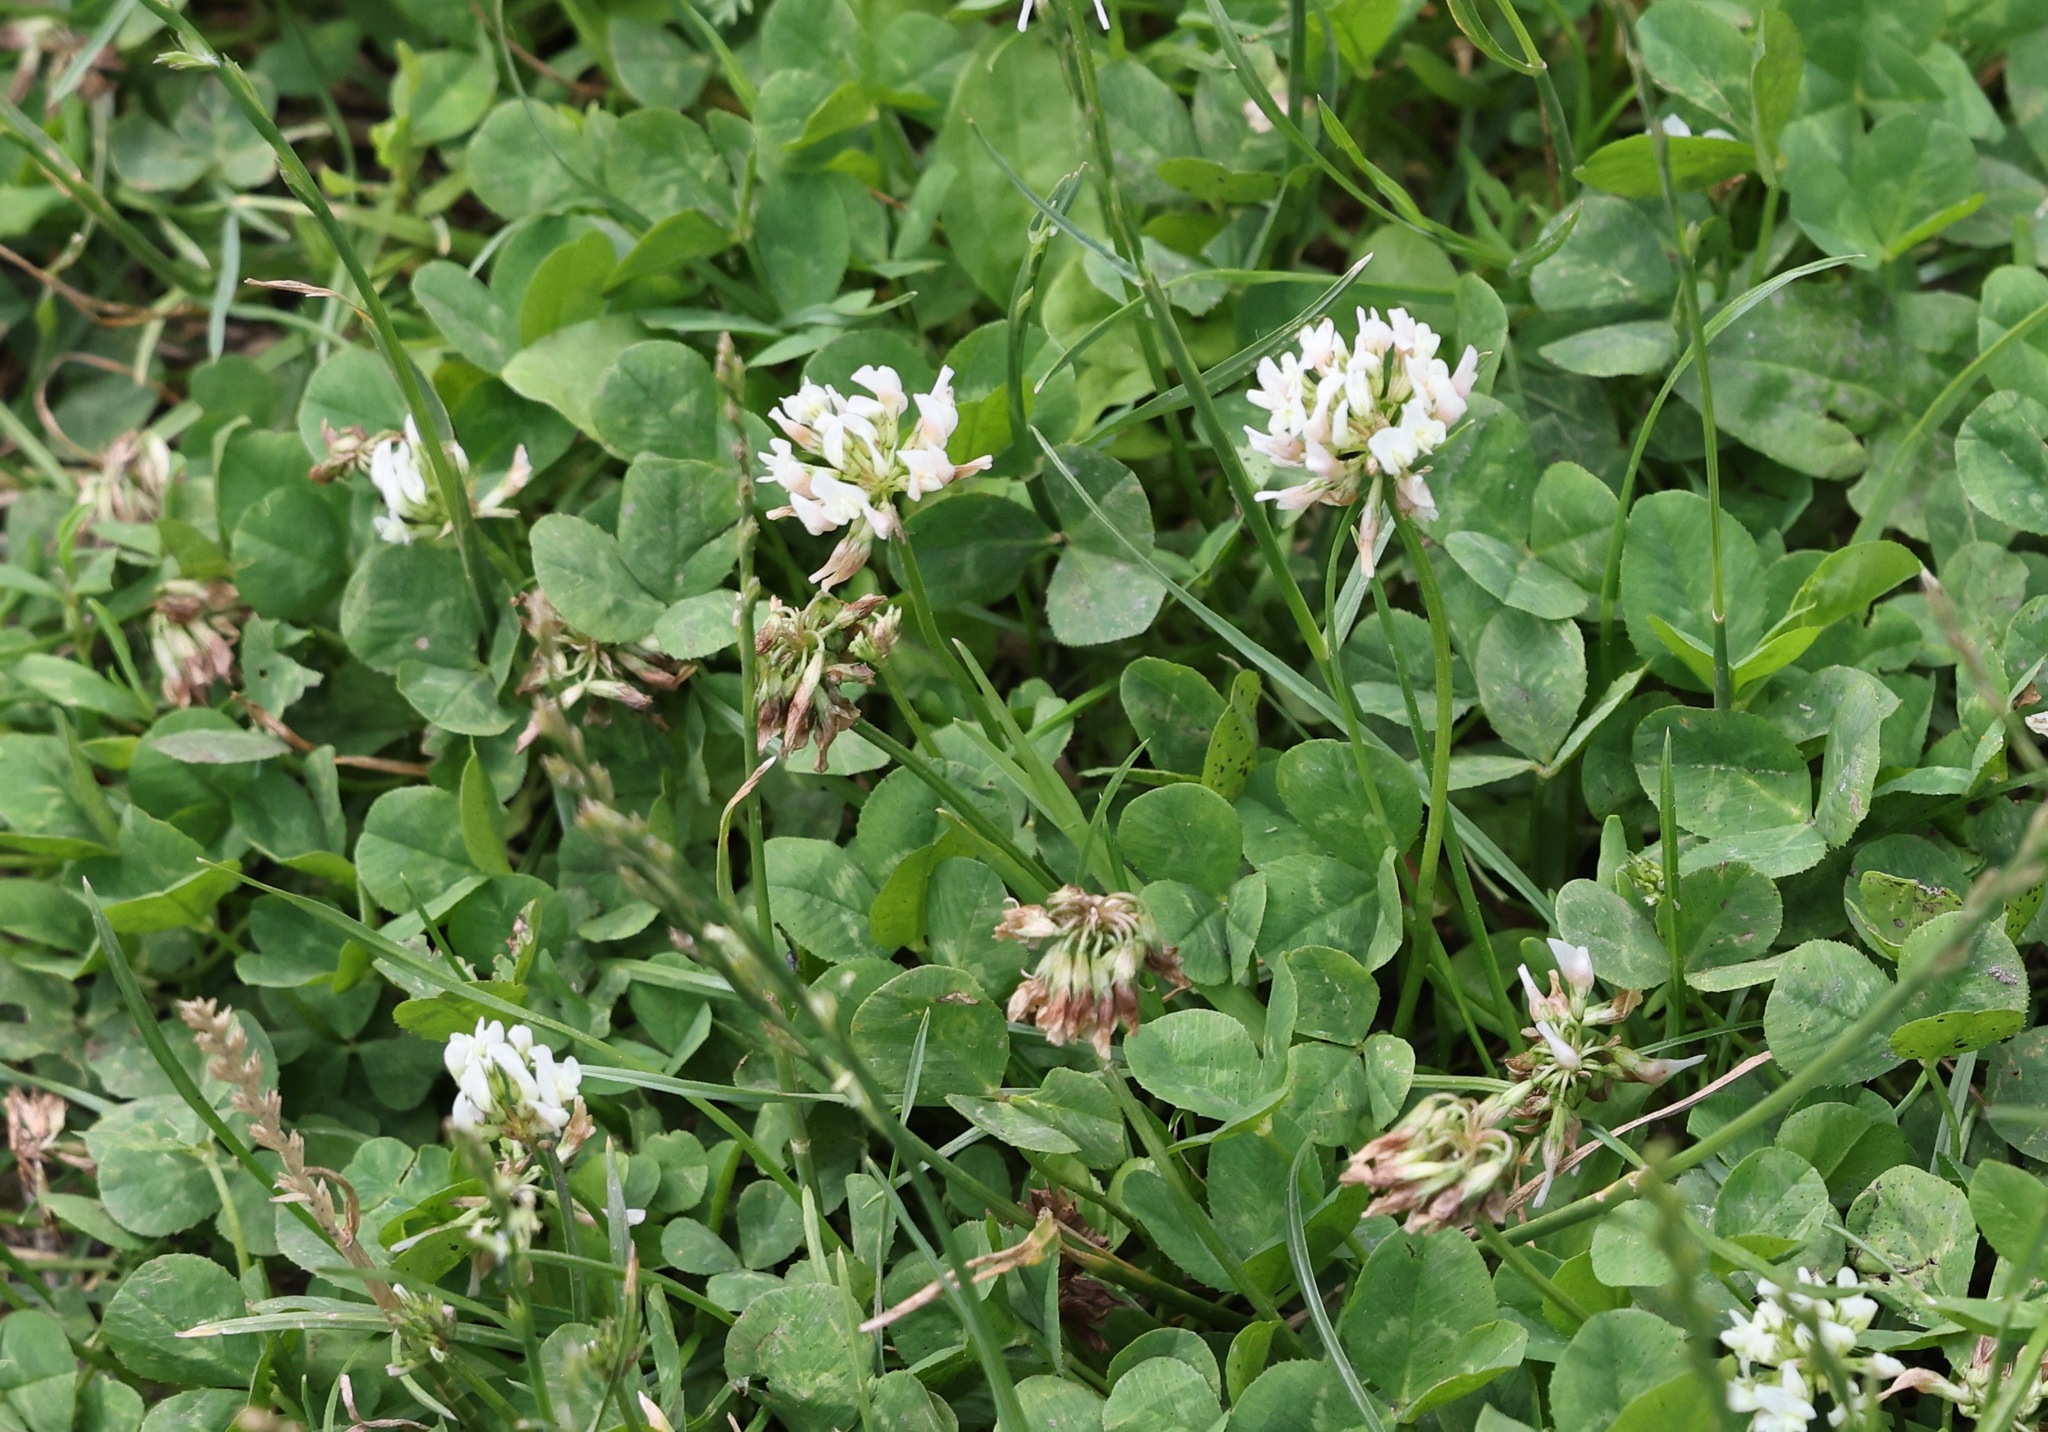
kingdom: Plantae
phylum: Tracheophyta
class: Magnoliopsida
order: Fabales
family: Fabaceae
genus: Trifolium
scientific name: Trifolium repens
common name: White clover
